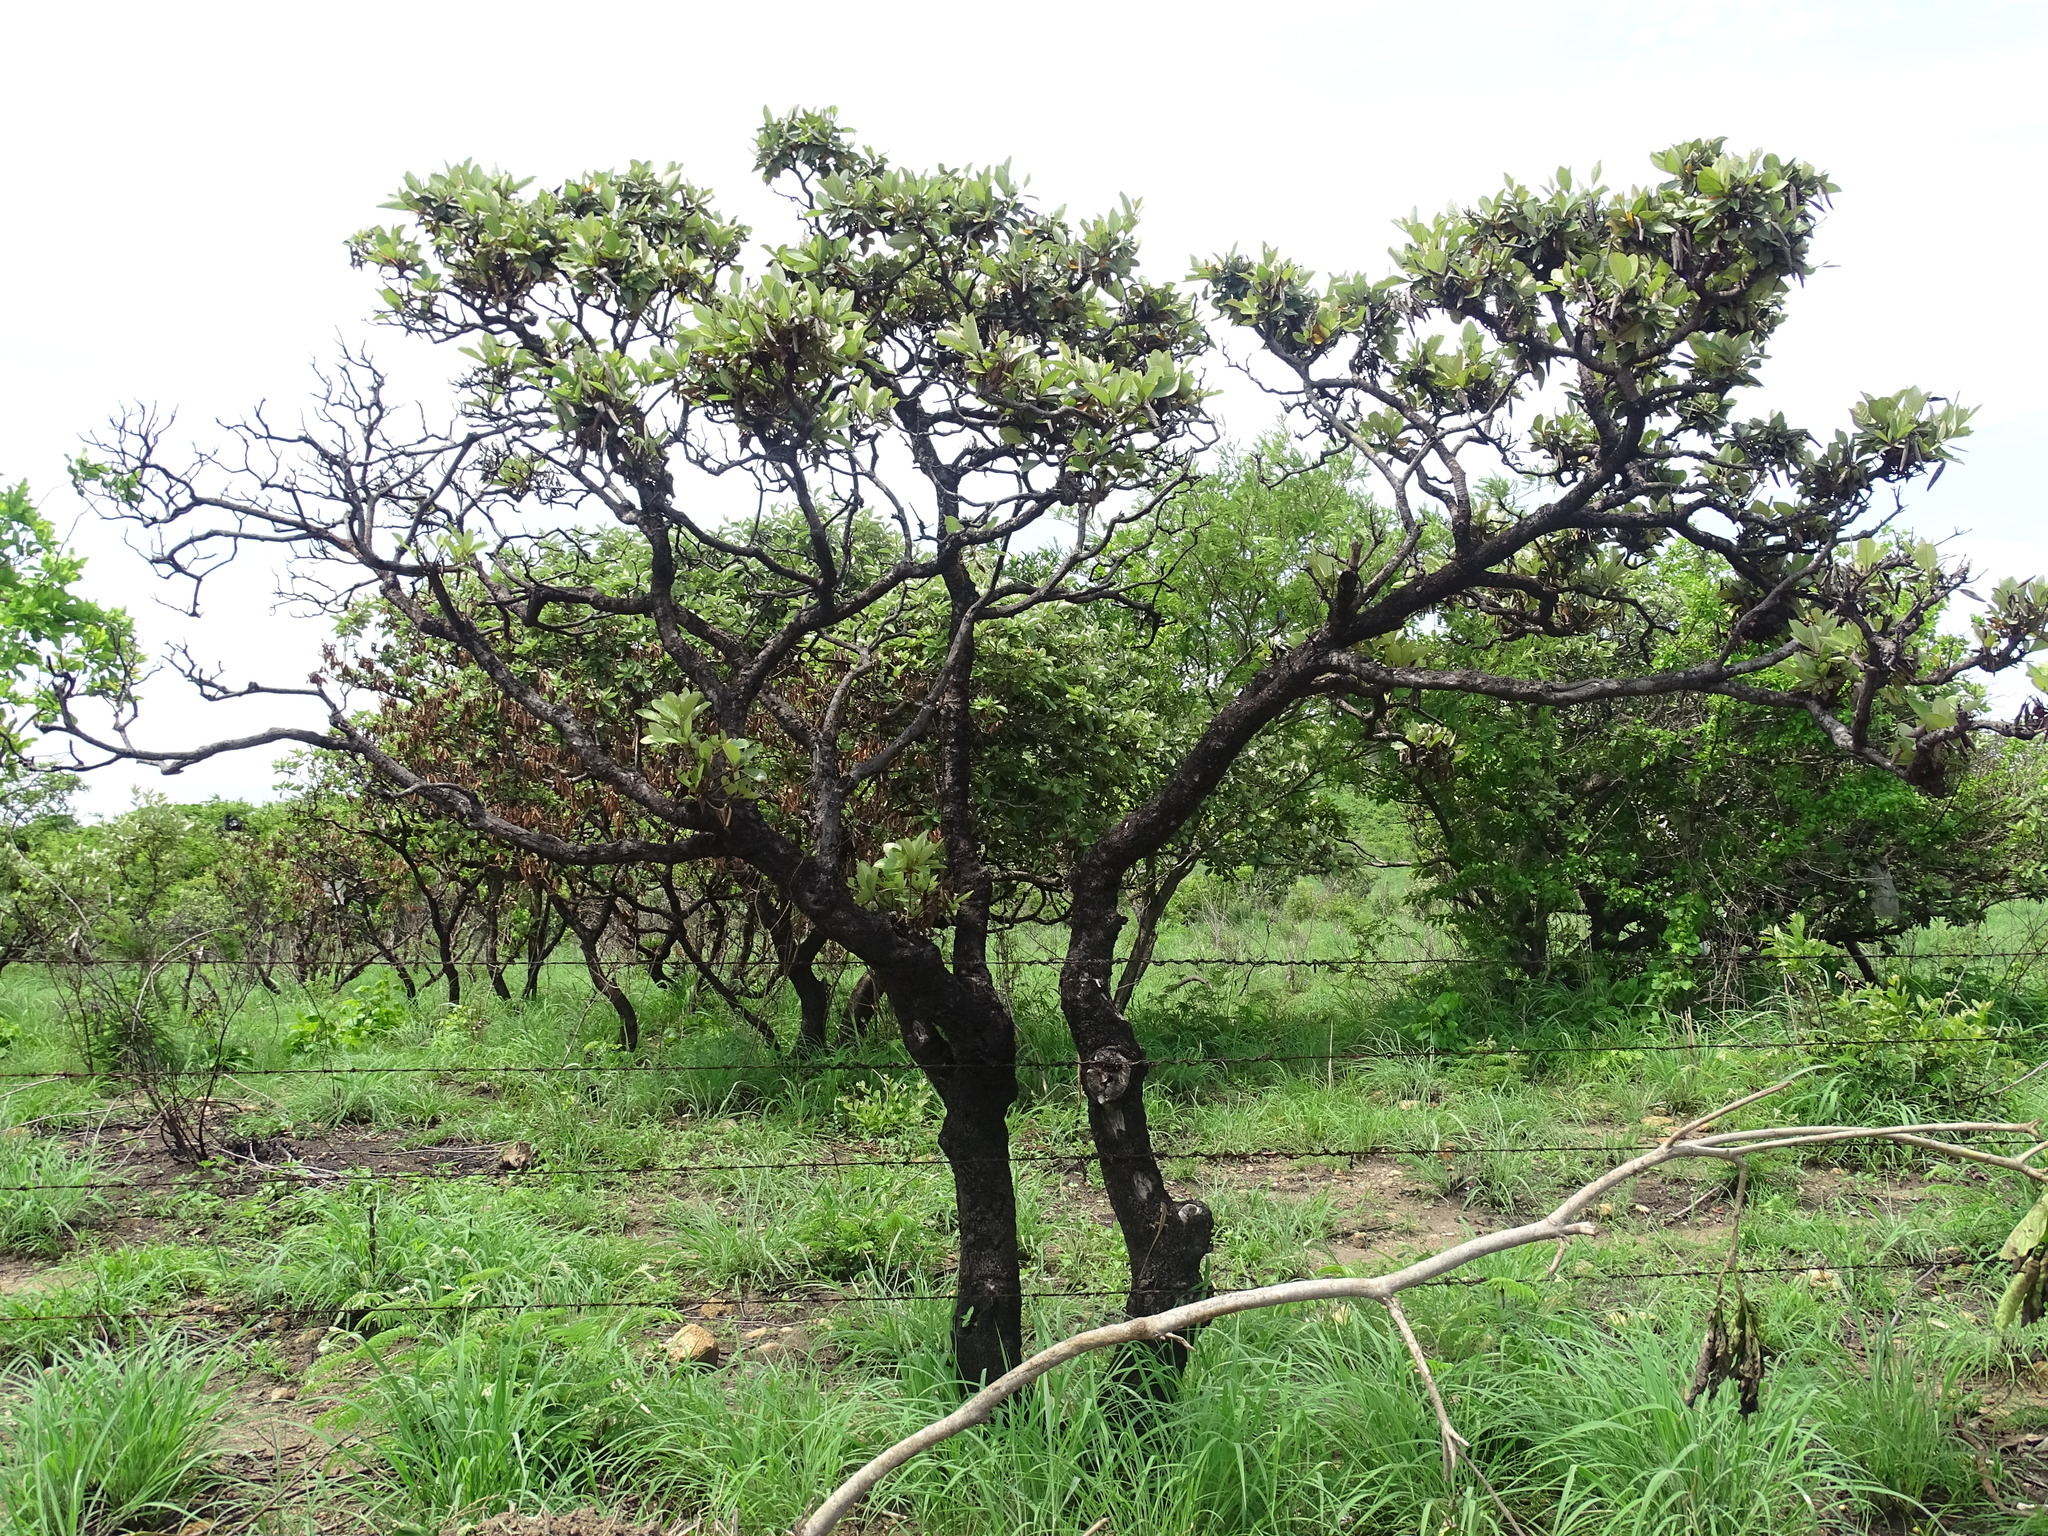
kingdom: Plantae
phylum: Tracheophyta
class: Magnoliopsida
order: Malpighiales
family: Malpighiaceae
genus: Byrsonima
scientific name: Byrsonima crassifolia
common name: Golden spoon
